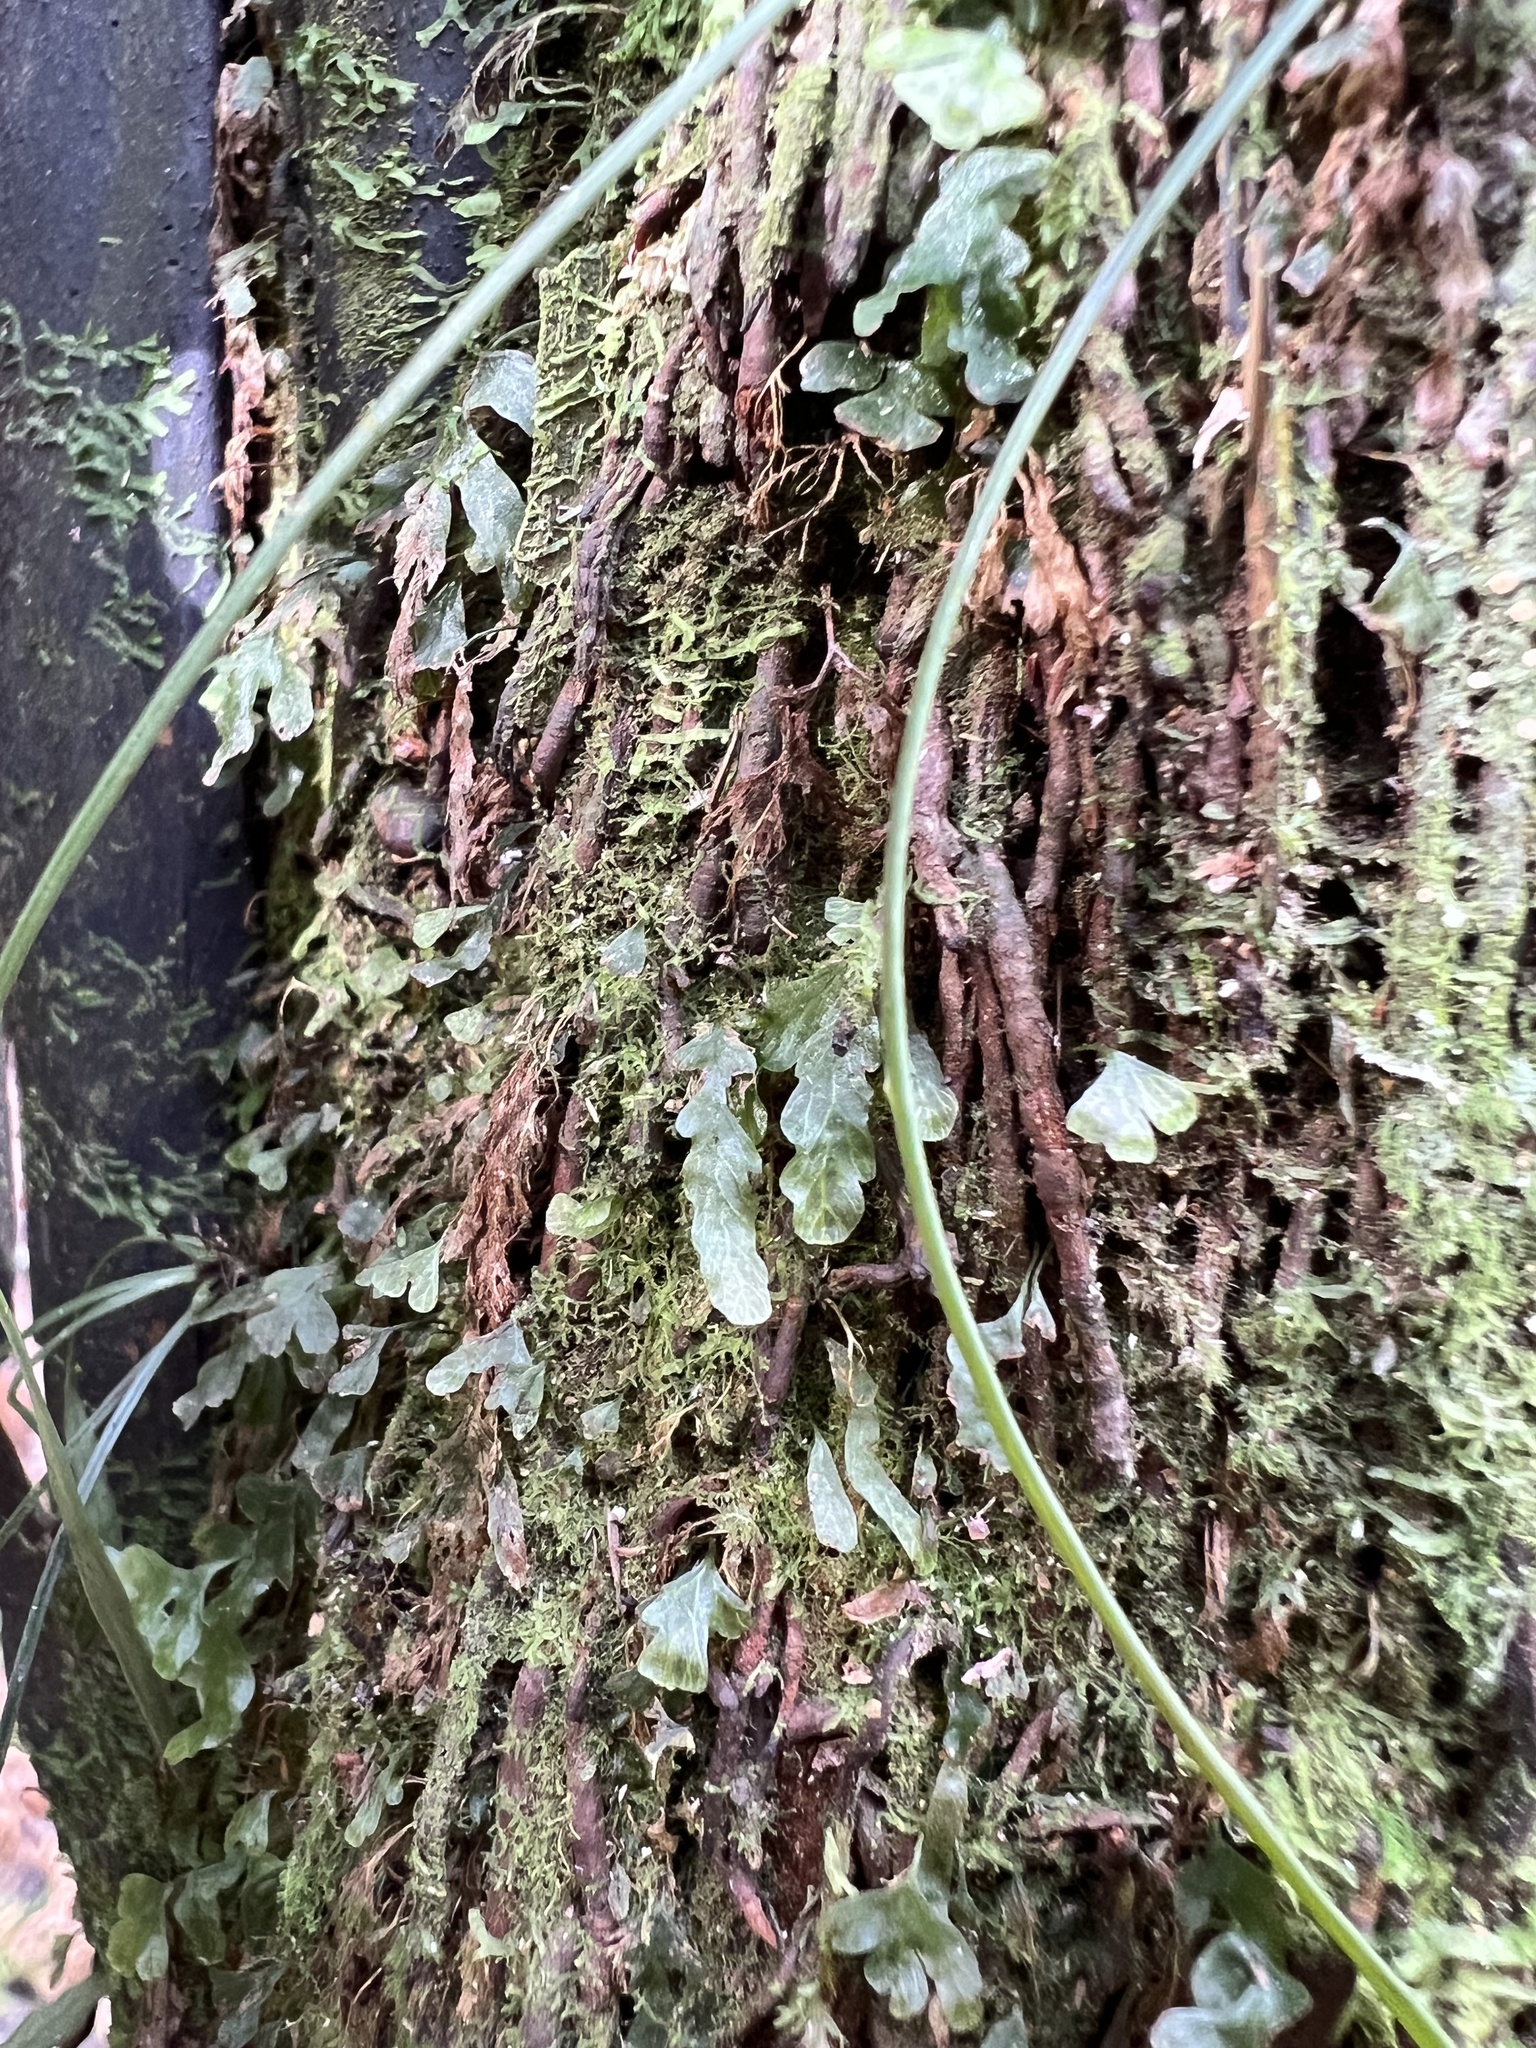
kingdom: Plantae
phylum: Tracheophyta
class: Polypodiopsida
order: Hymenophyllales
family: Hymenophyllaceae
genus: Polyphlebium
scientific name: Polyphlebium venosum
